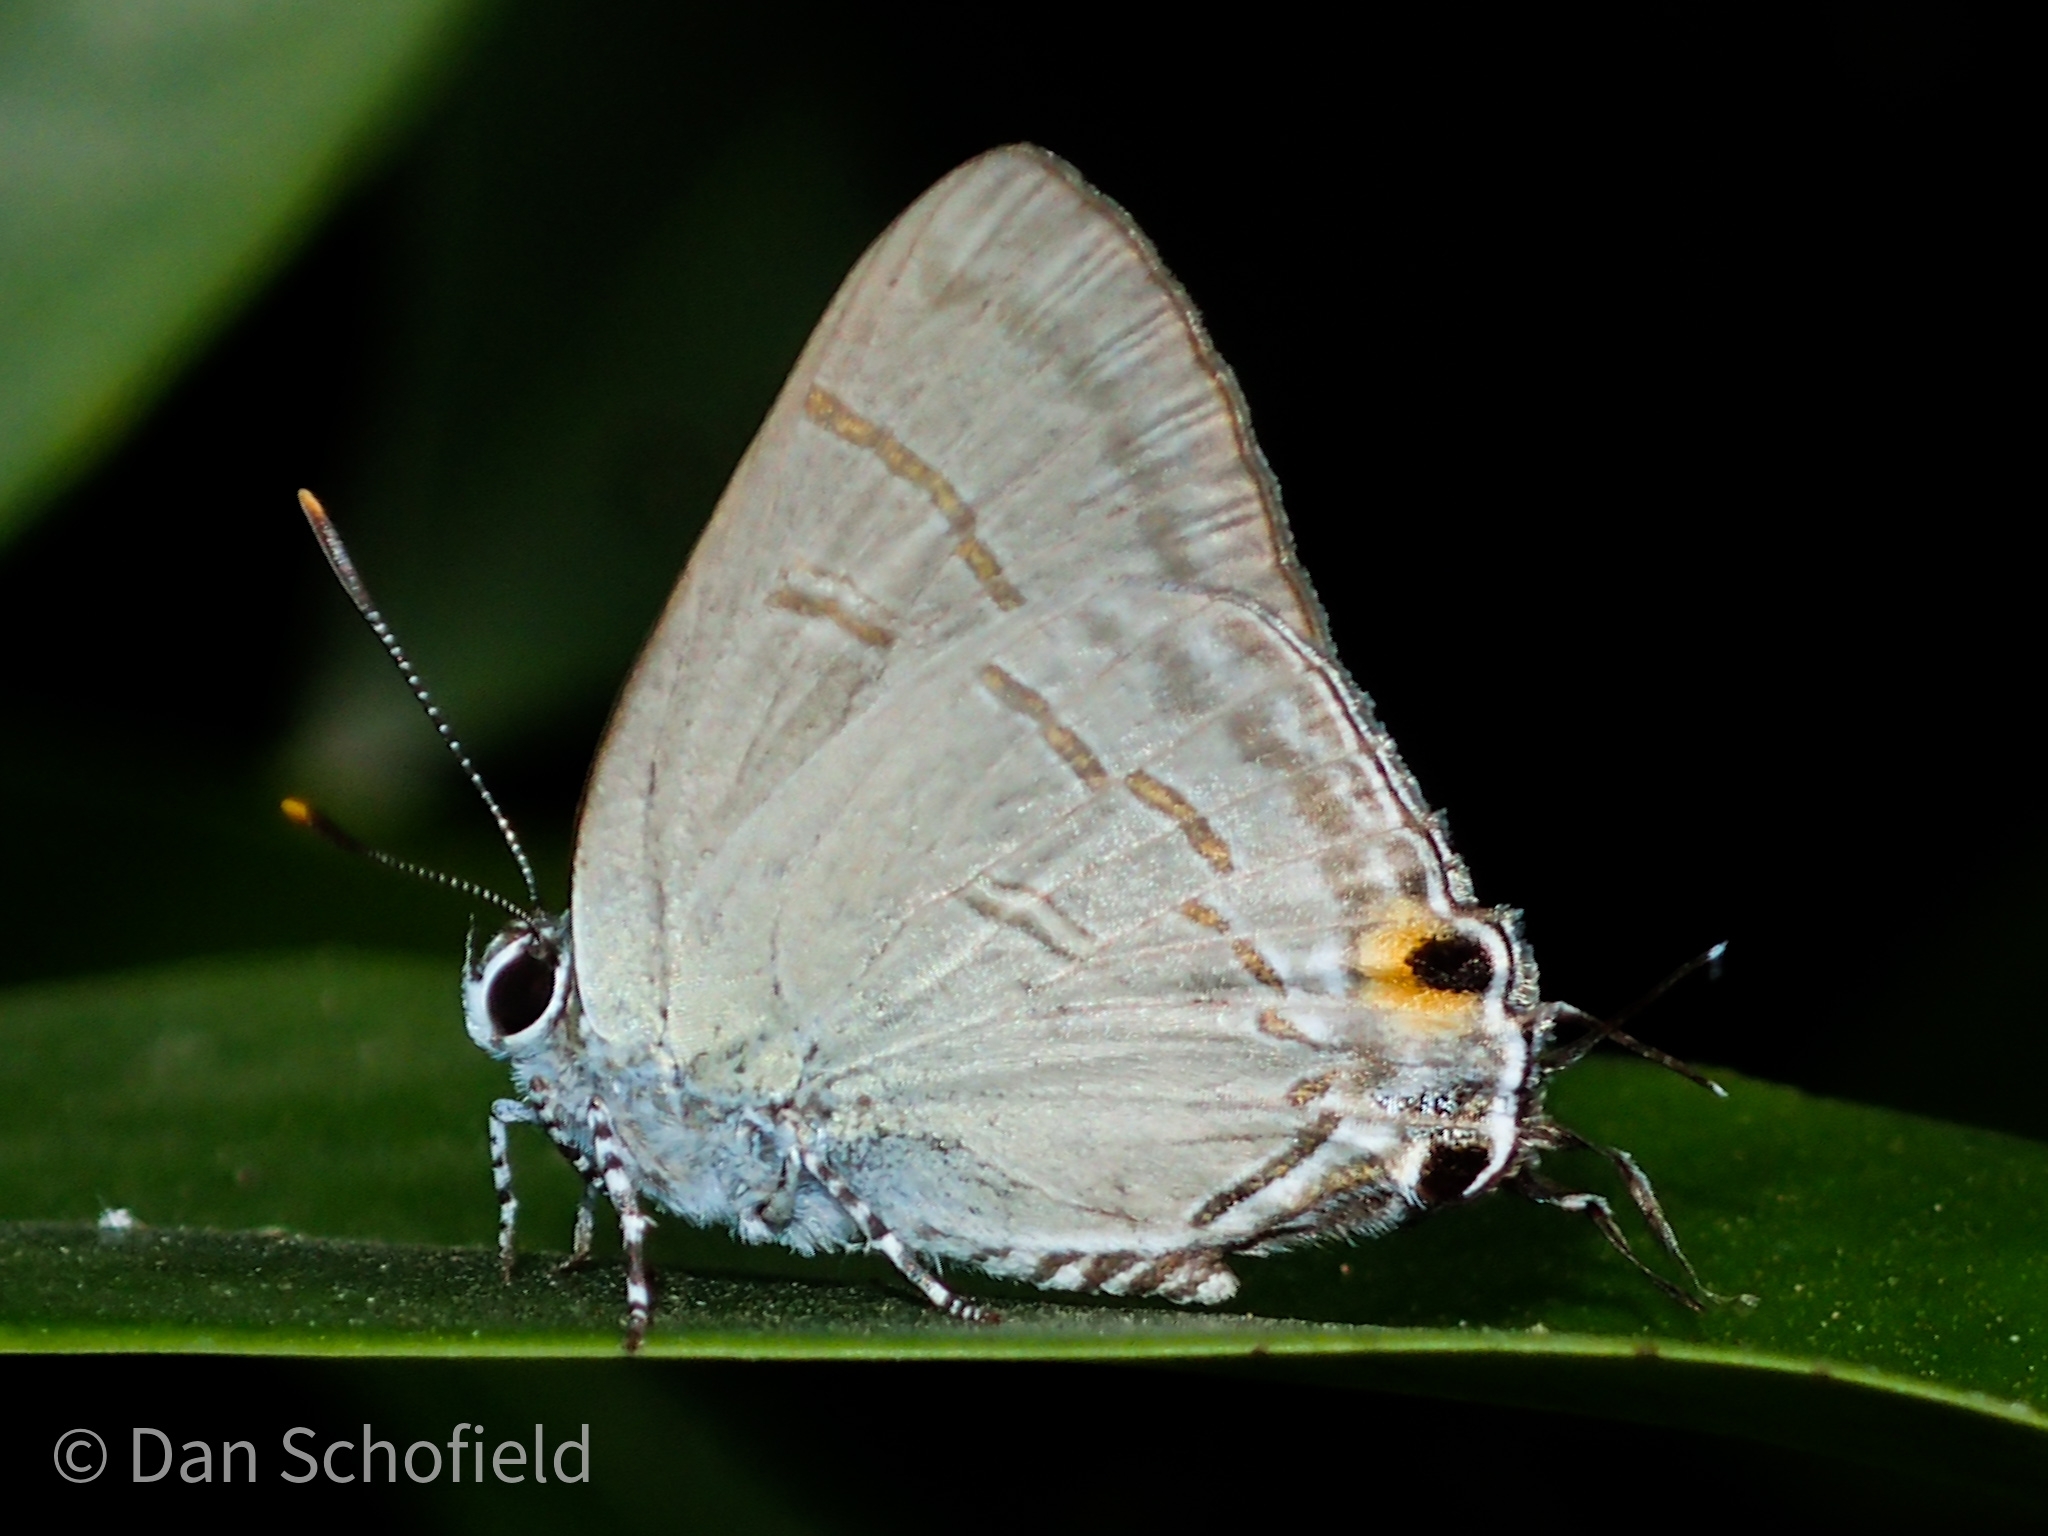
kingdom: Animalia
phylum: Arthropoda
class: Insecta
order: Lepidoptera
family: Lycaenidae
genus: Hypolycaena
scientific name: Hypolycaena erylus
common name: Common tit
